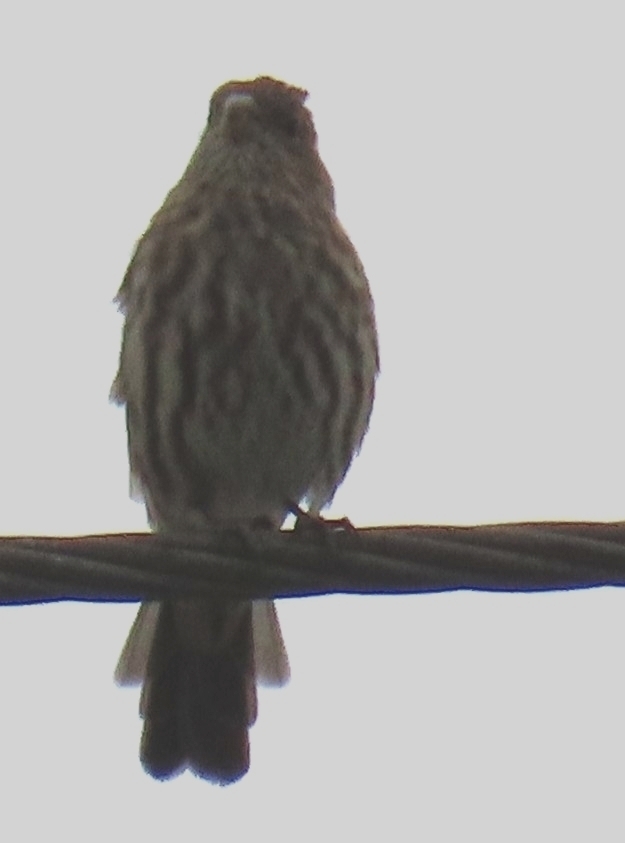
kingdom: Animalia
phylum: Chordata
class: Aves
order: Passeriformes
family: Fringillidae
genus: Haemorhous
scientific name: Haemorhous mexicanus
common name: House finch
